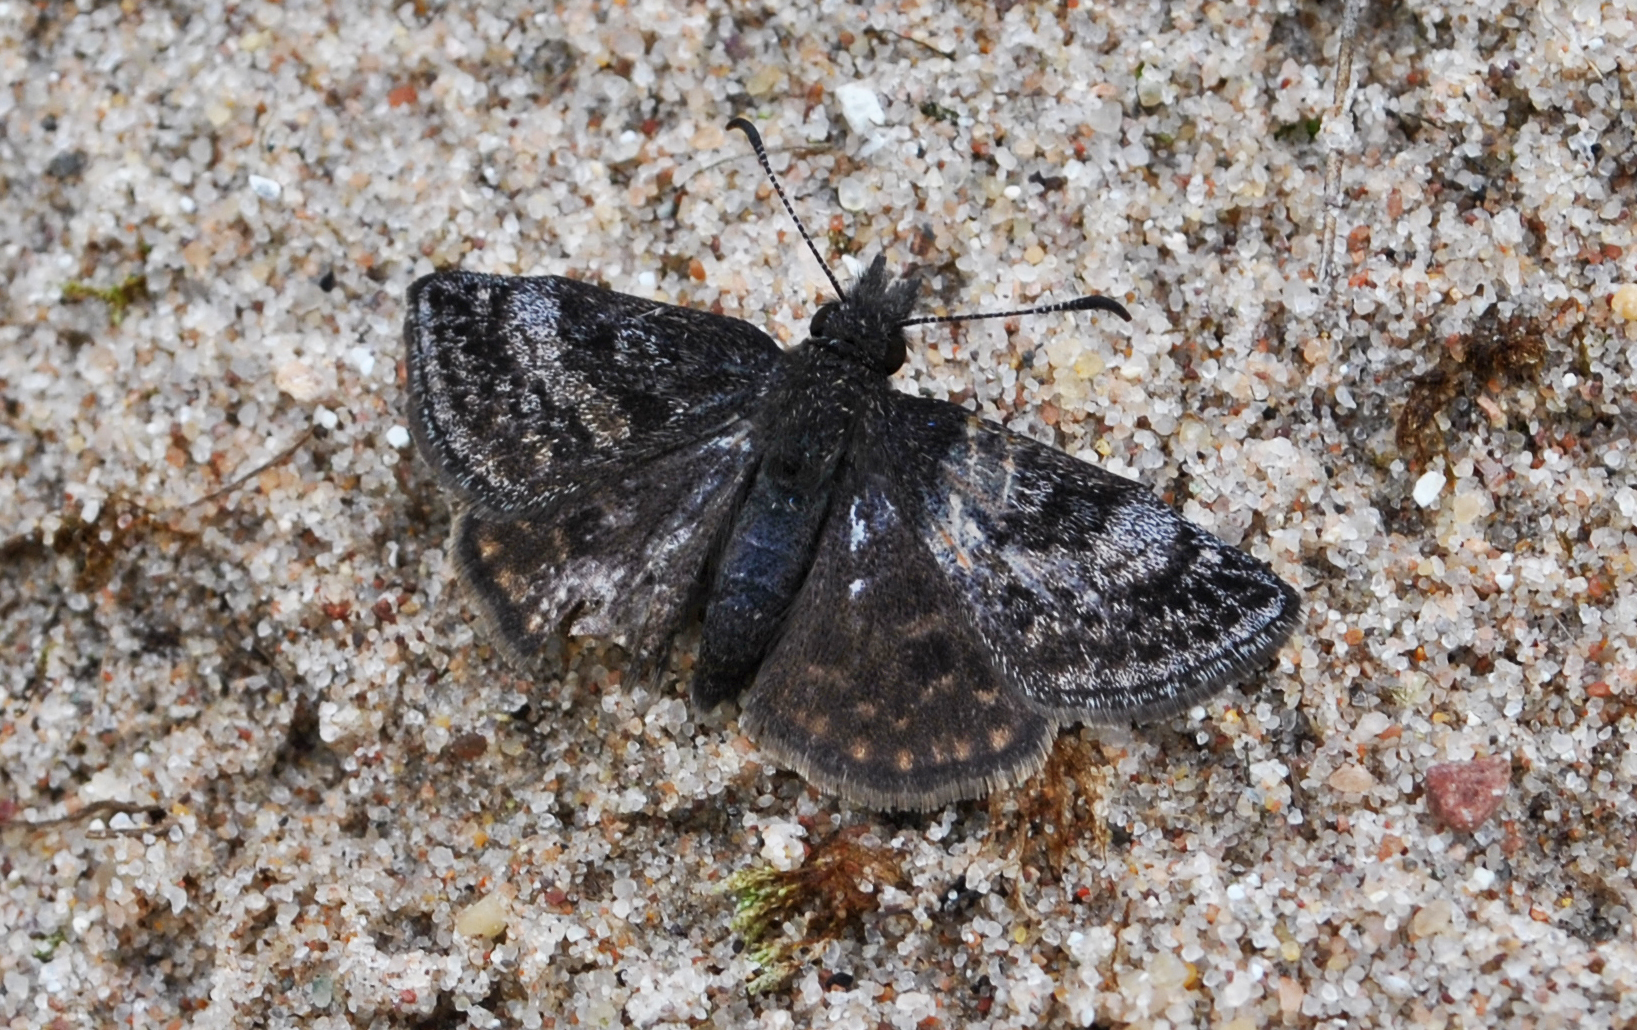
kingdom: Animalia
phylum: Arthropoda
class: Insecta
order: Lepidoptera
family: Hesperiidae
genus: Erynnis
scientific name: Erynnis icelus
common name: Dreamy duskywing
